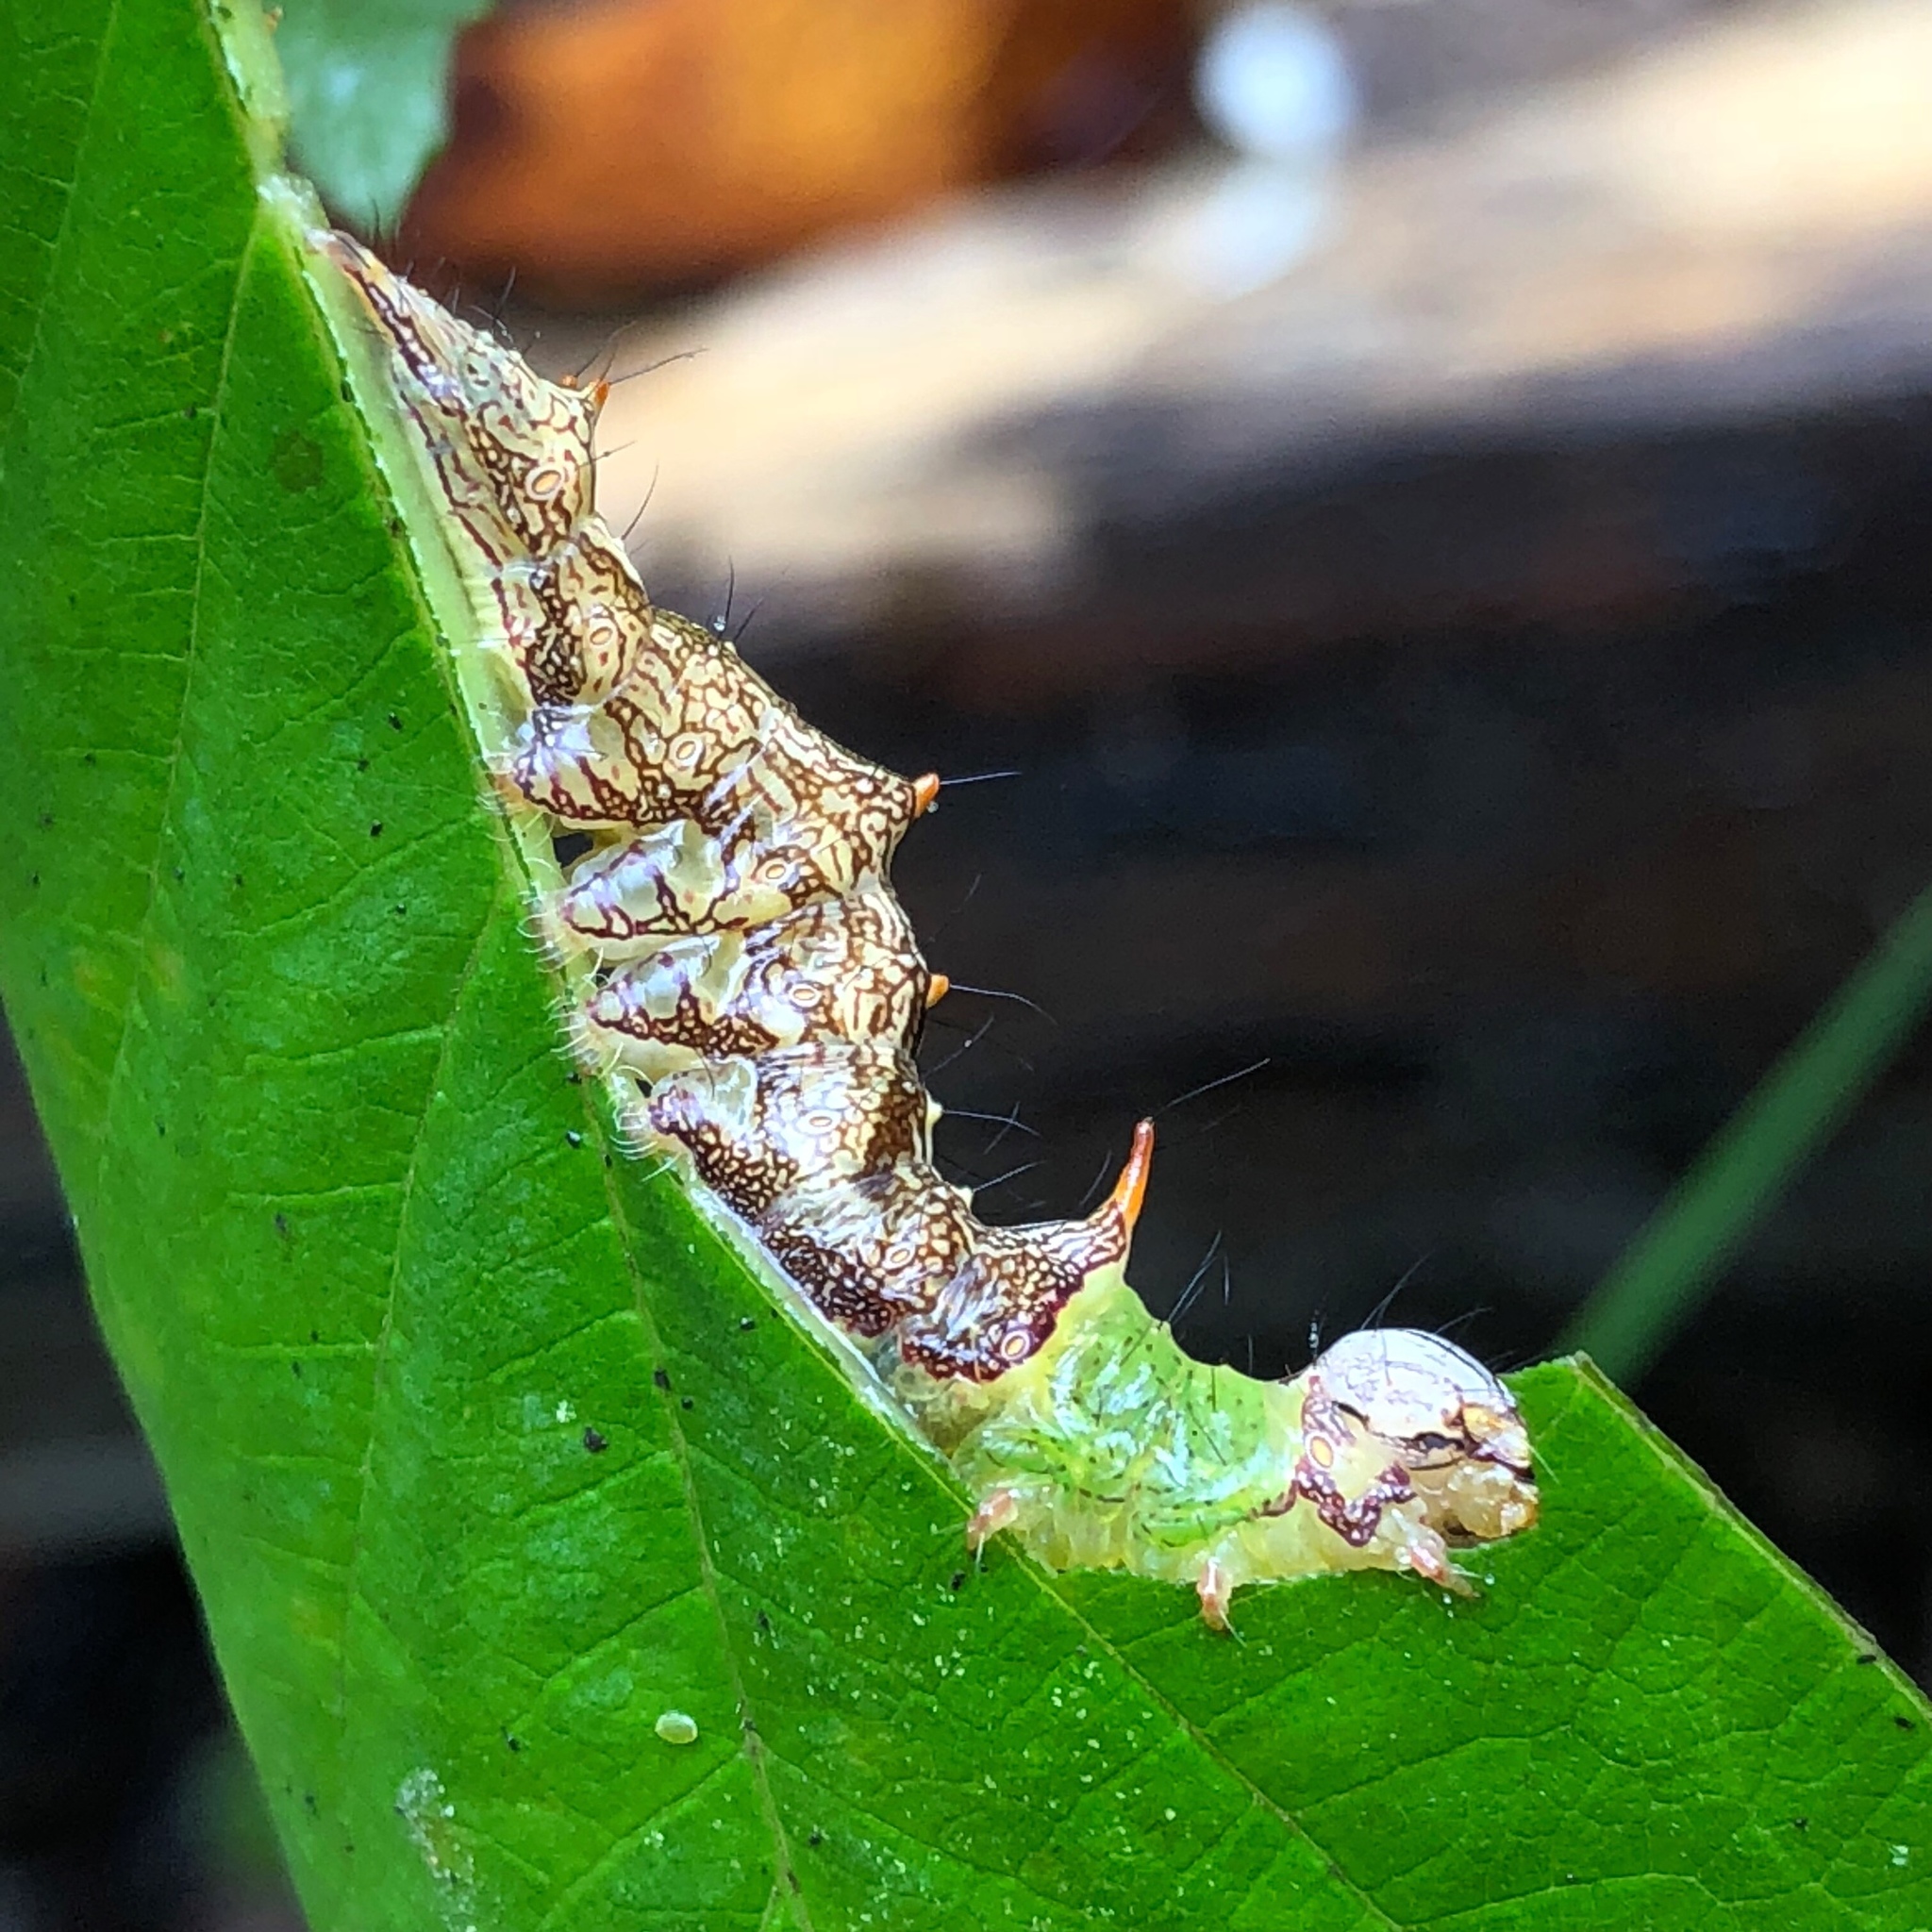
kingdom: Animalia
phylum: Arthropoda
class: Insecta
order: Lepidoptera
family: Notodontidae
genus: Schizura
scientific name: Schizura ipomaeae
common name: Morning-glory prominent
